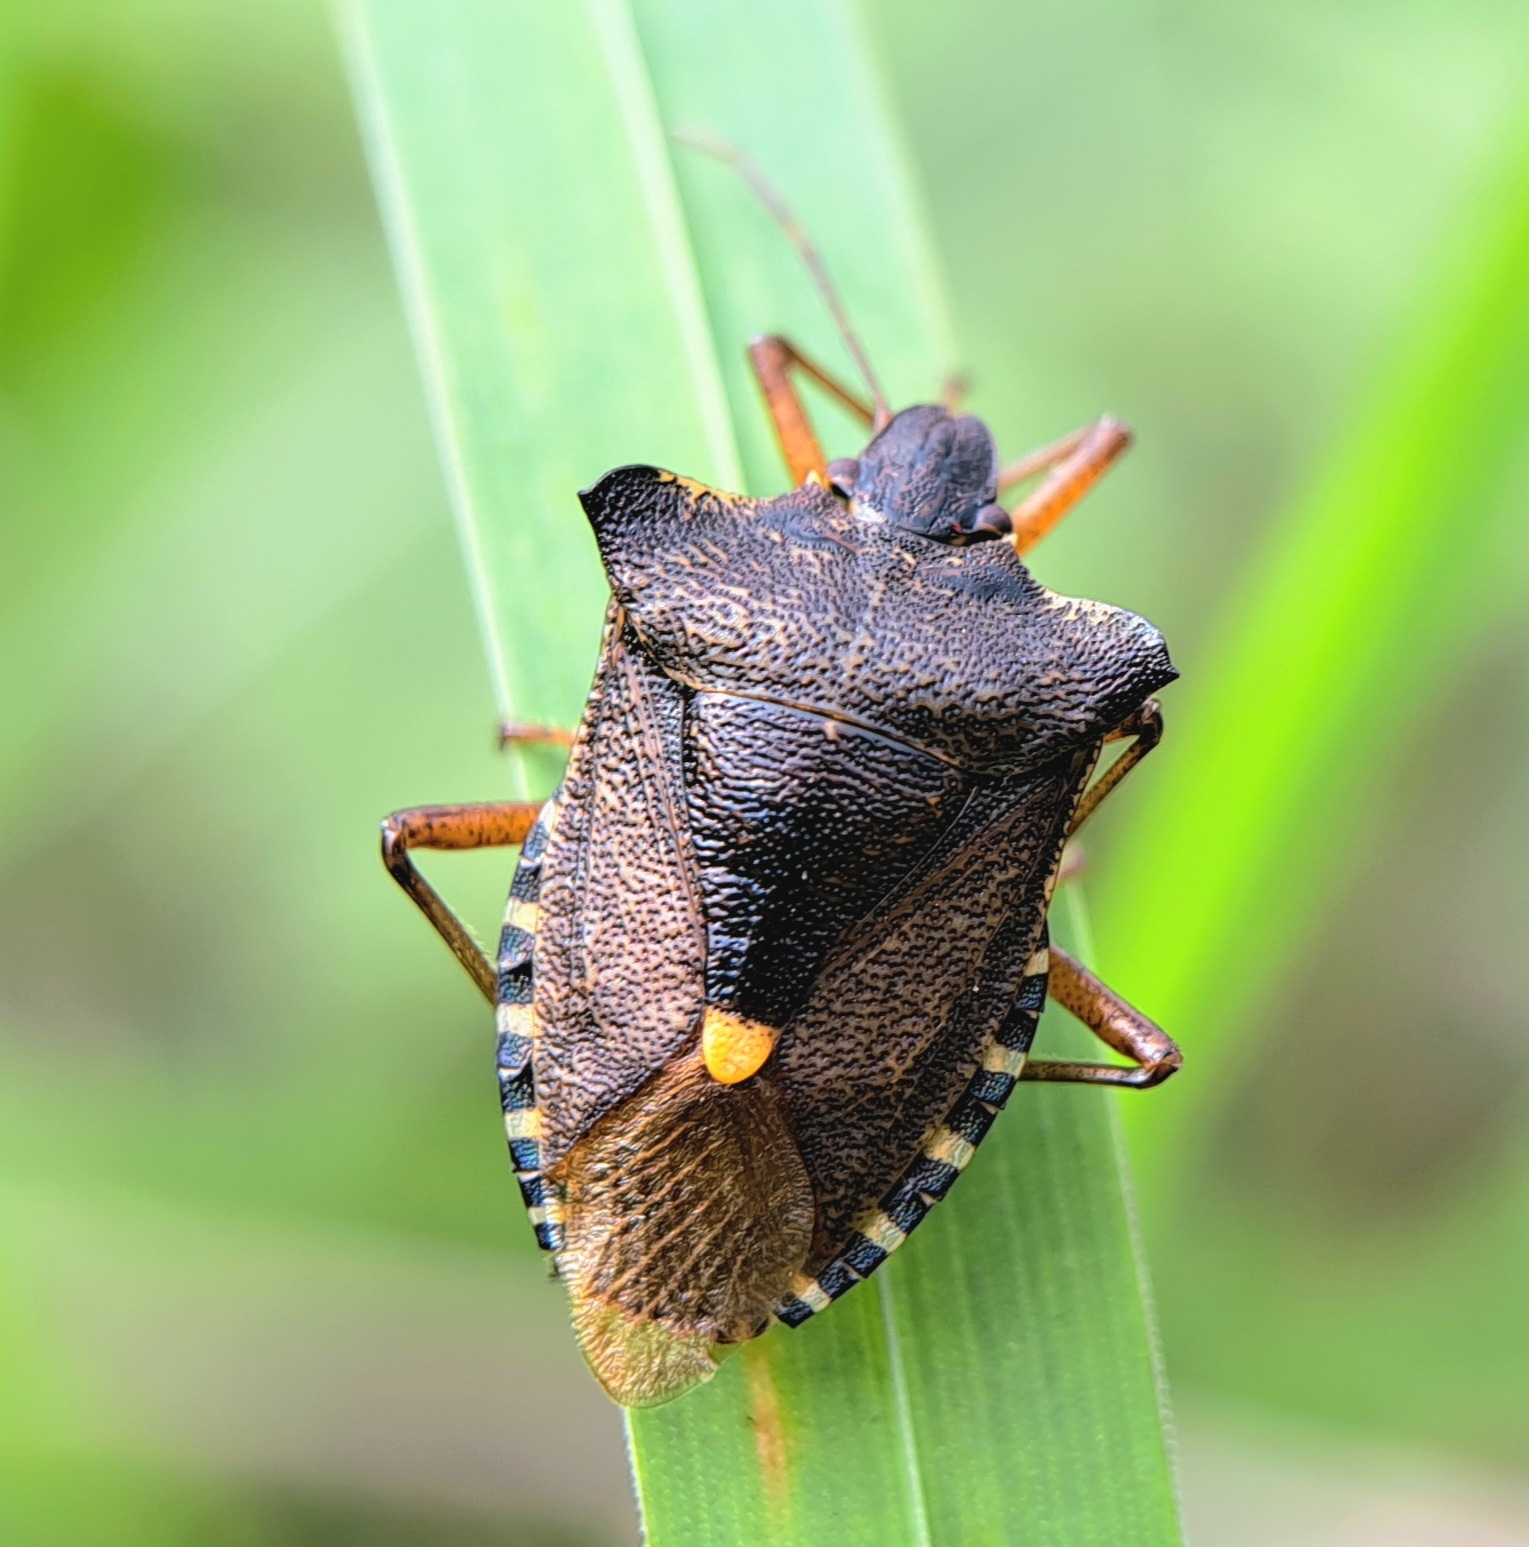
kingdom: Animalia
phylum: Arthropoda
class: Insecta
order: Hemiptera
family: Pentatomidae
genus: Pentatoma
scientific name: Pentatoma rufipes
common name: Forest bug
